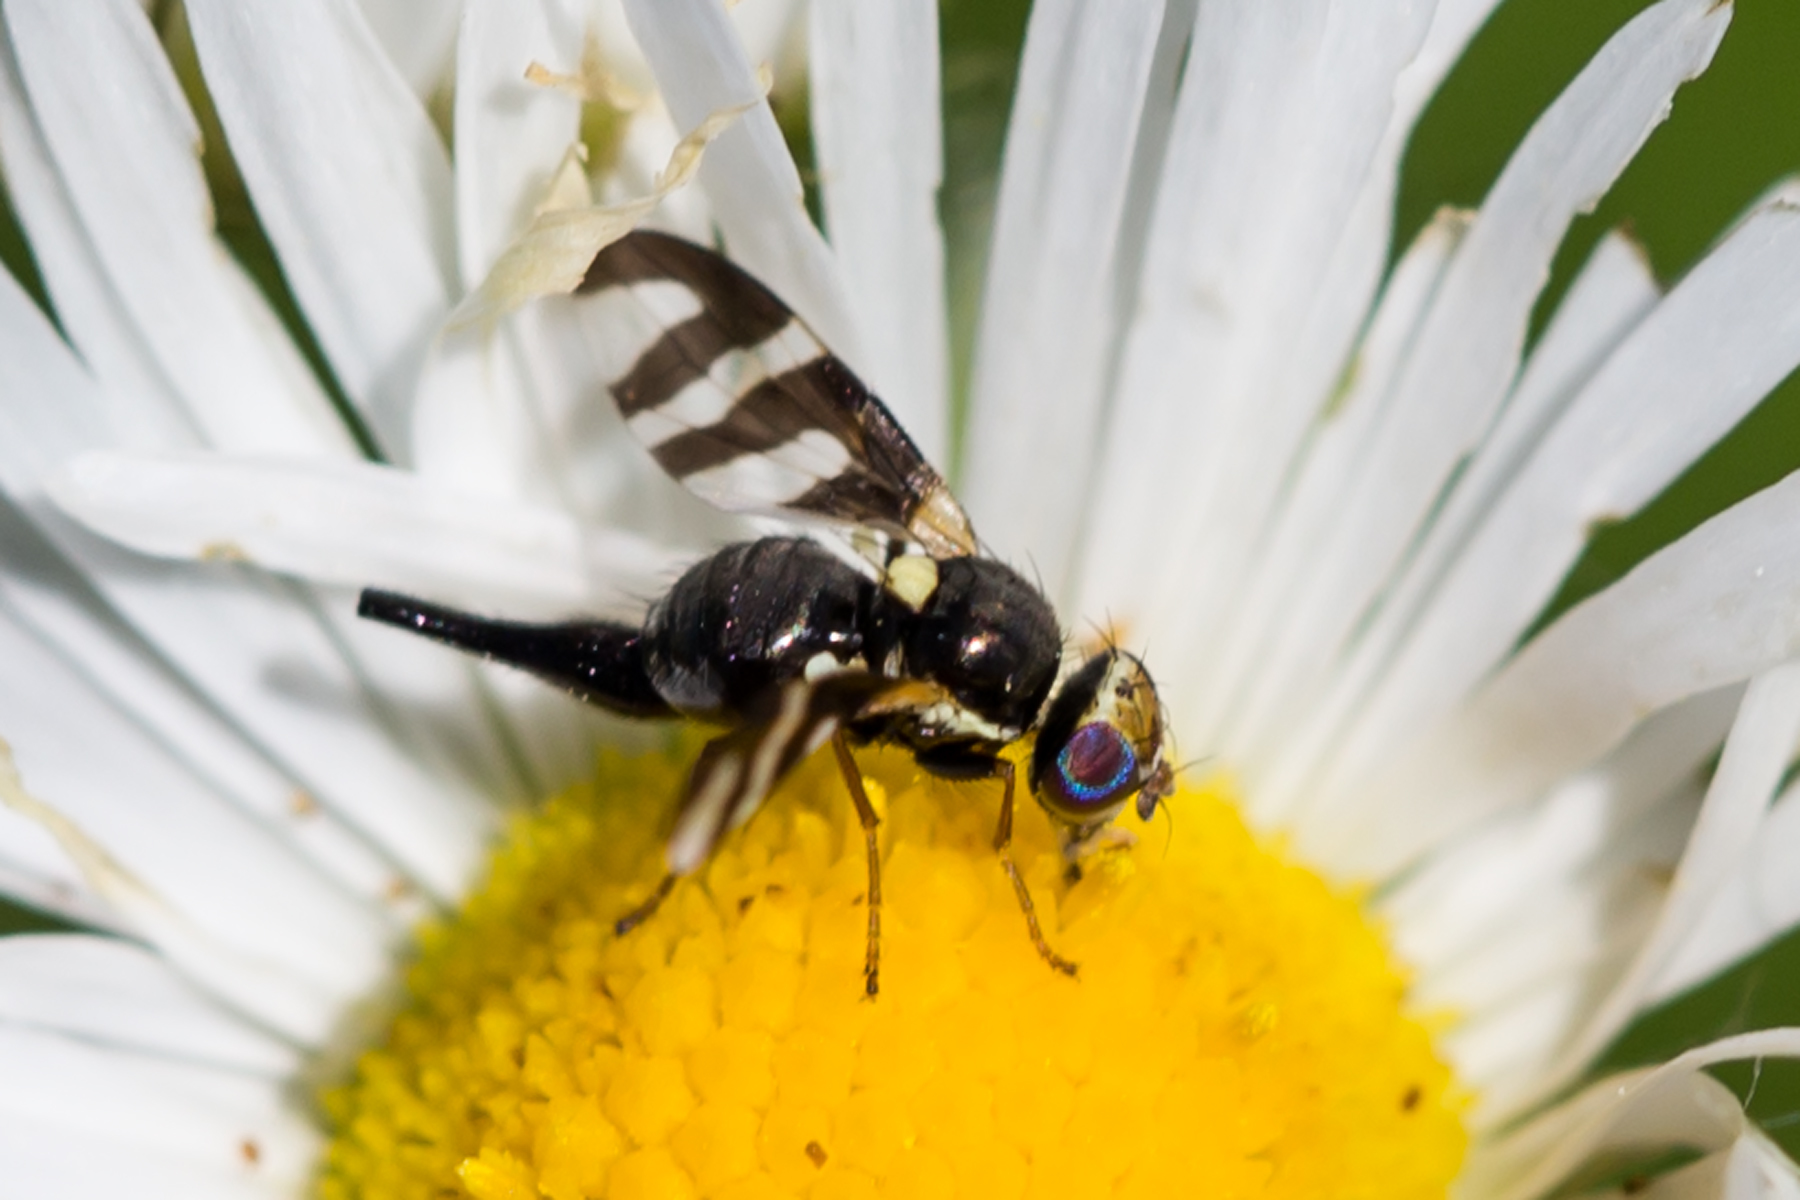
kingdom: Animalia
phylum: Arthropoda
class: Insecta
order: Diptera
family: Tephritidae
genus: Urophora
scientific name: Urophora quadrifasciata
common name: Knapweed seedhead fly
